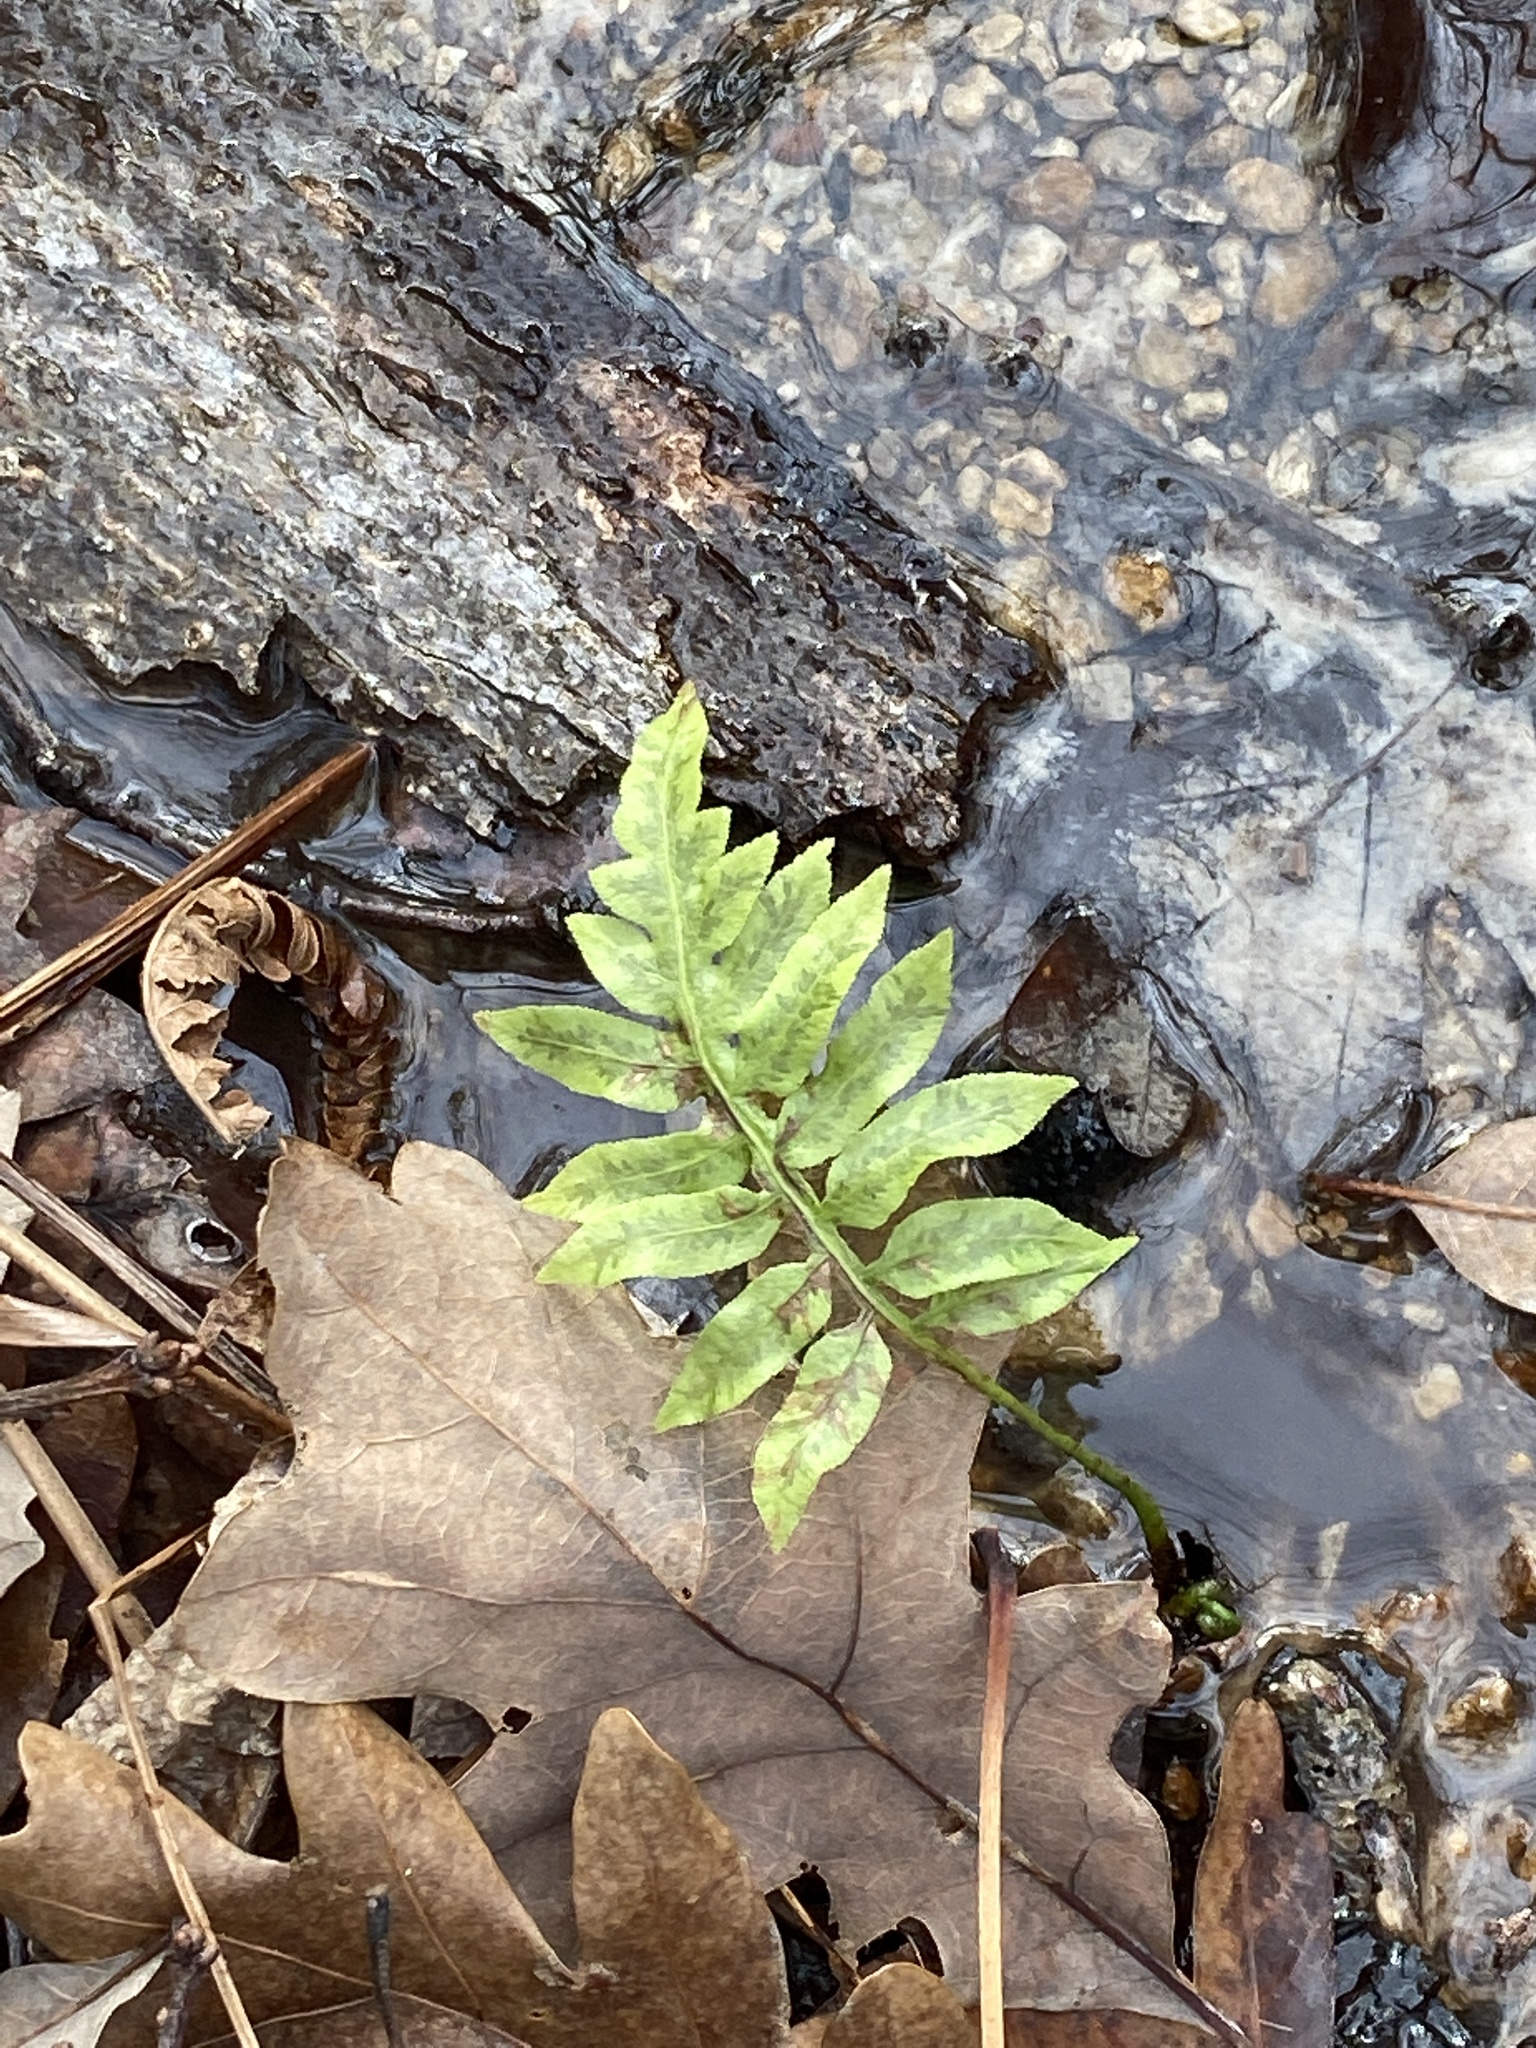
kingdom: Plantae
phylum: Tracheophyta
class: Polypodiopsida
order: Polypodiales
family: Blechnaceae
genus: Lorinseria
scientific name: Lorinseria areolata
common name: Dwarf chain fern
